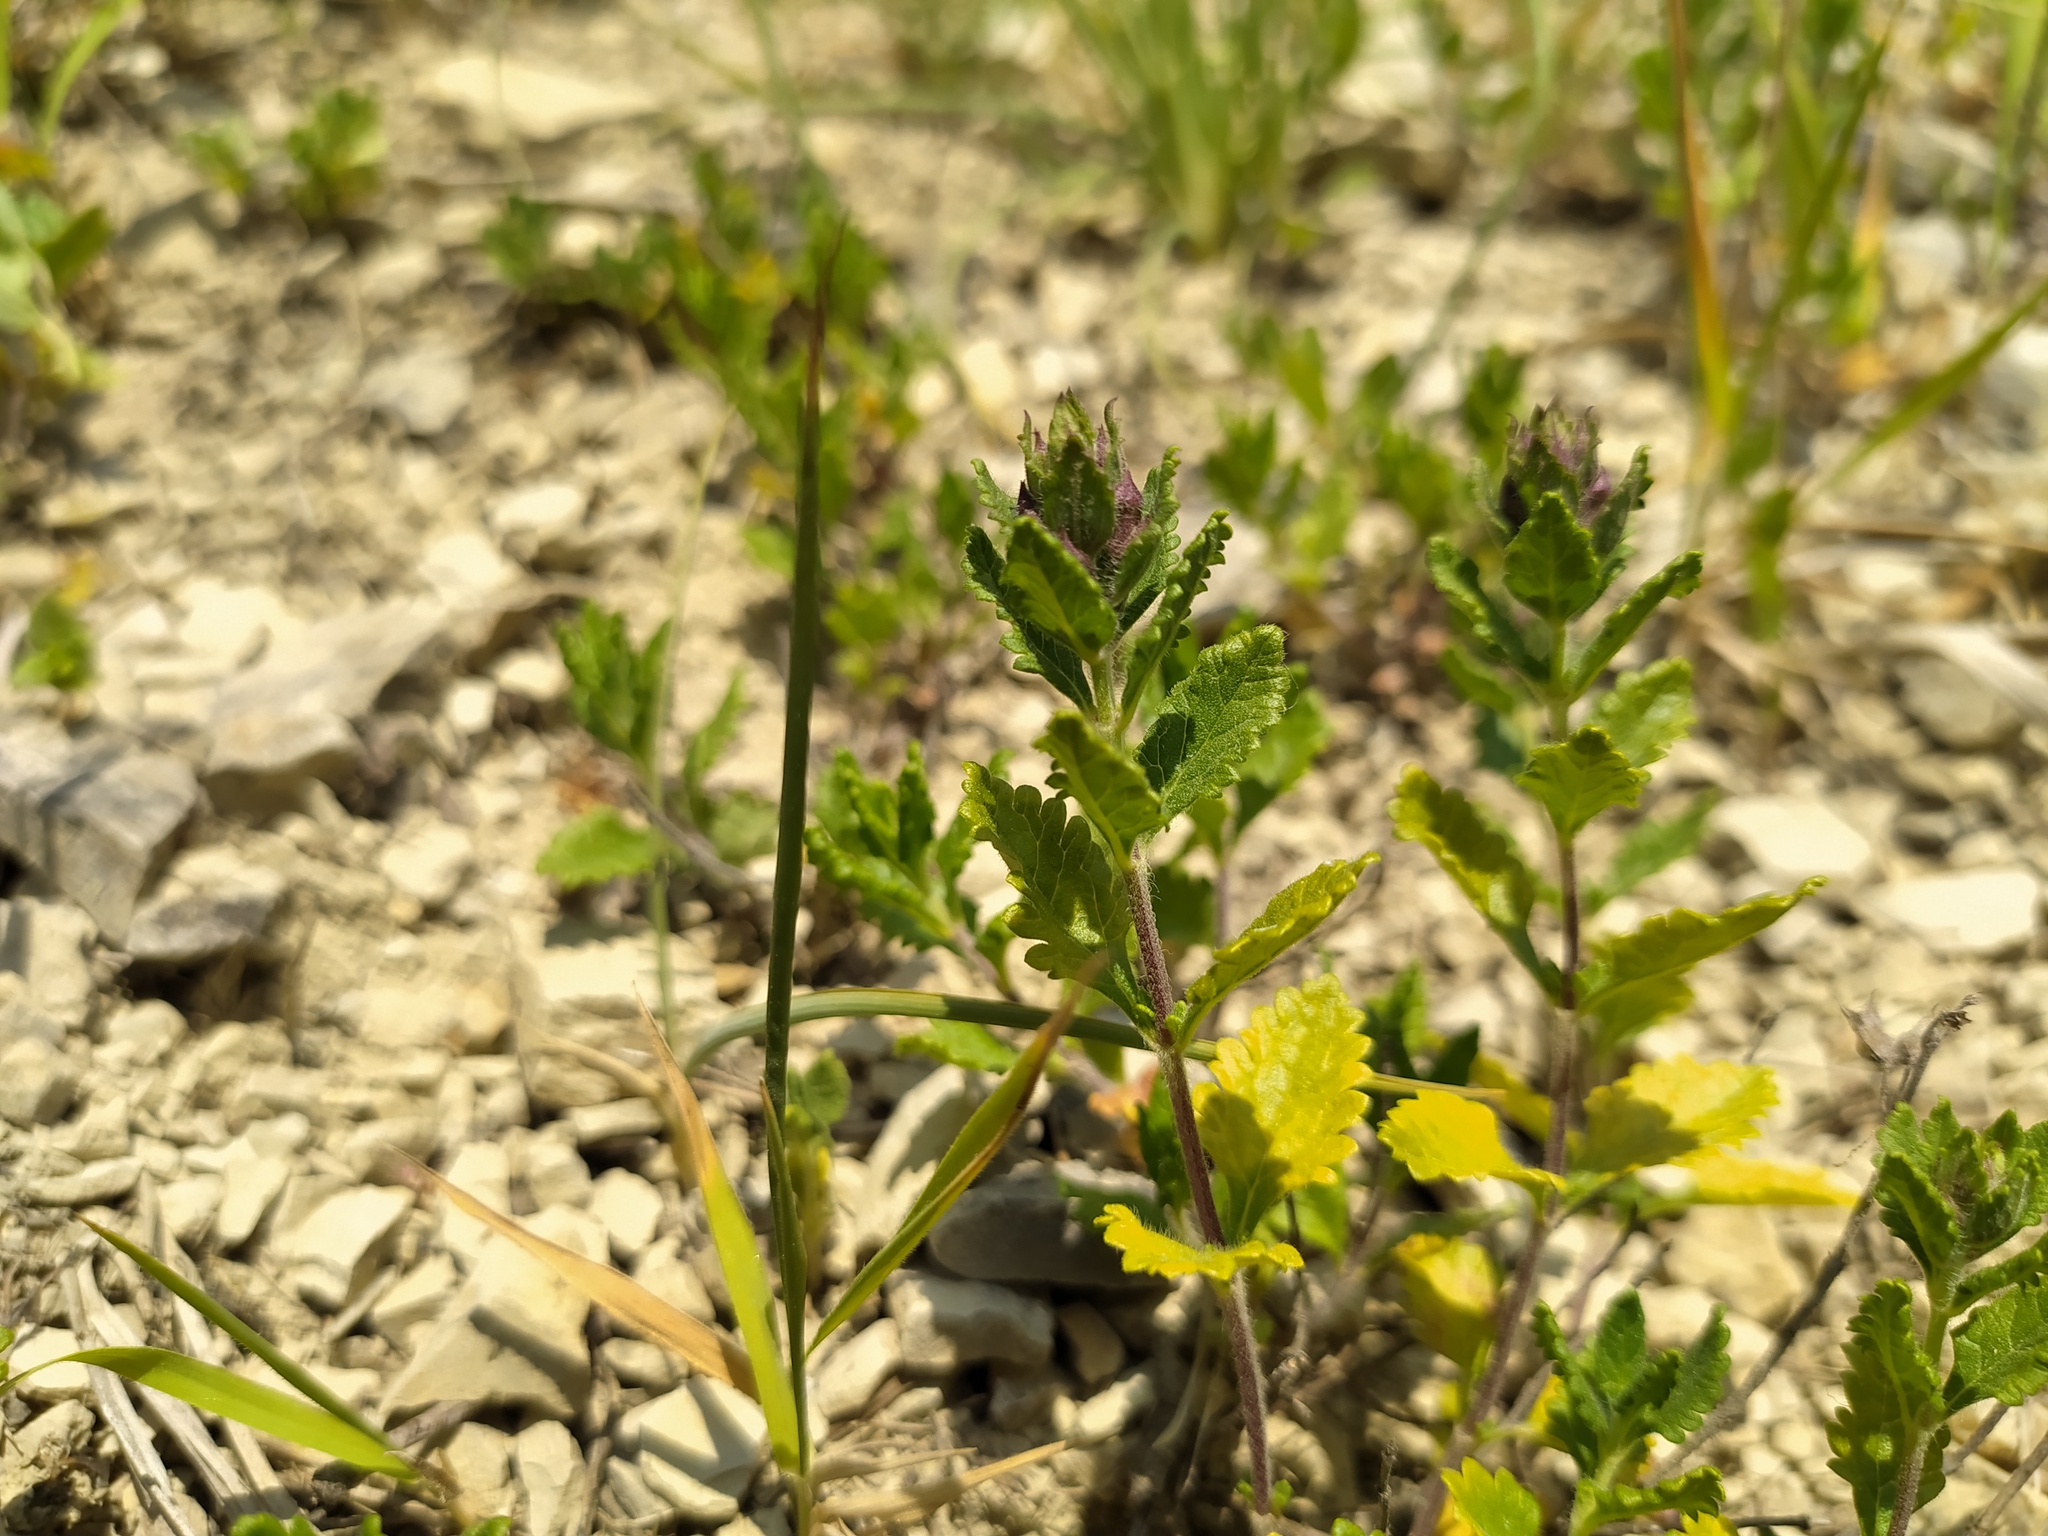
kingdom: Plantae
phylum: Tracheophyta
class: Magnoliopsida
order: Lamiales
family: Lamiaceae
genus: Teucrium
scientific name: Teucrium chamaedrys
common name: Wall germander
